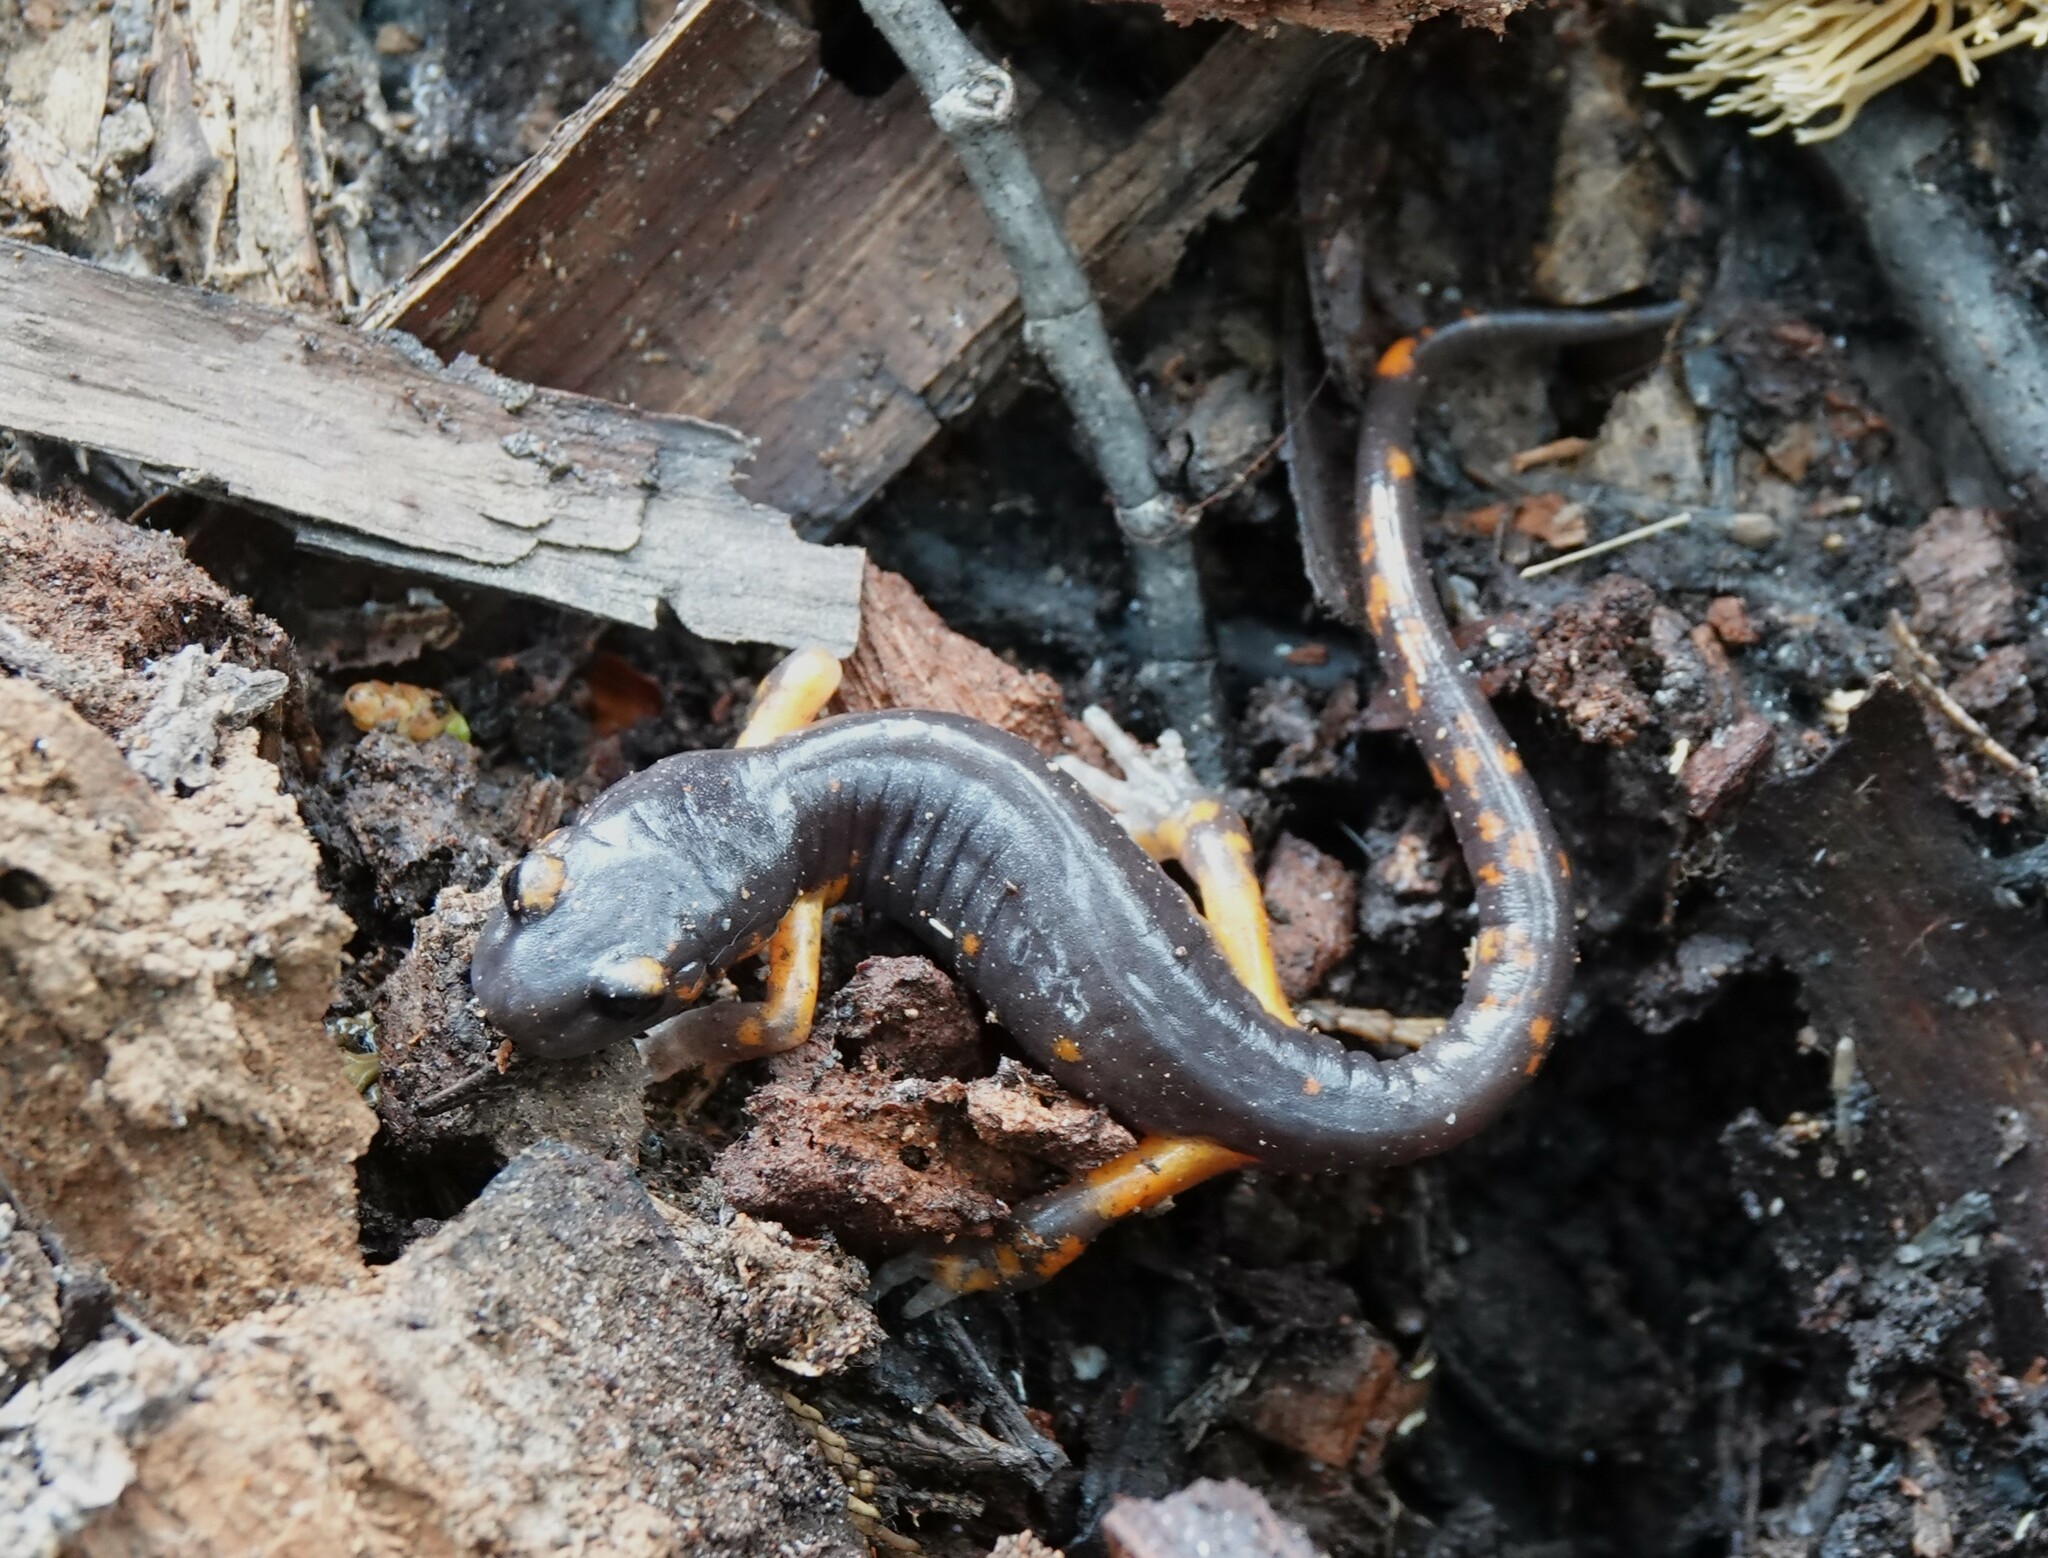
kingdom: Animalia
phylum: Chordata
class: Amphibia
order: Caudata
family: Plethodontidae
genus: Ensatina
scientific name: Ensatina eschscholtzii
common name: Ensatina
